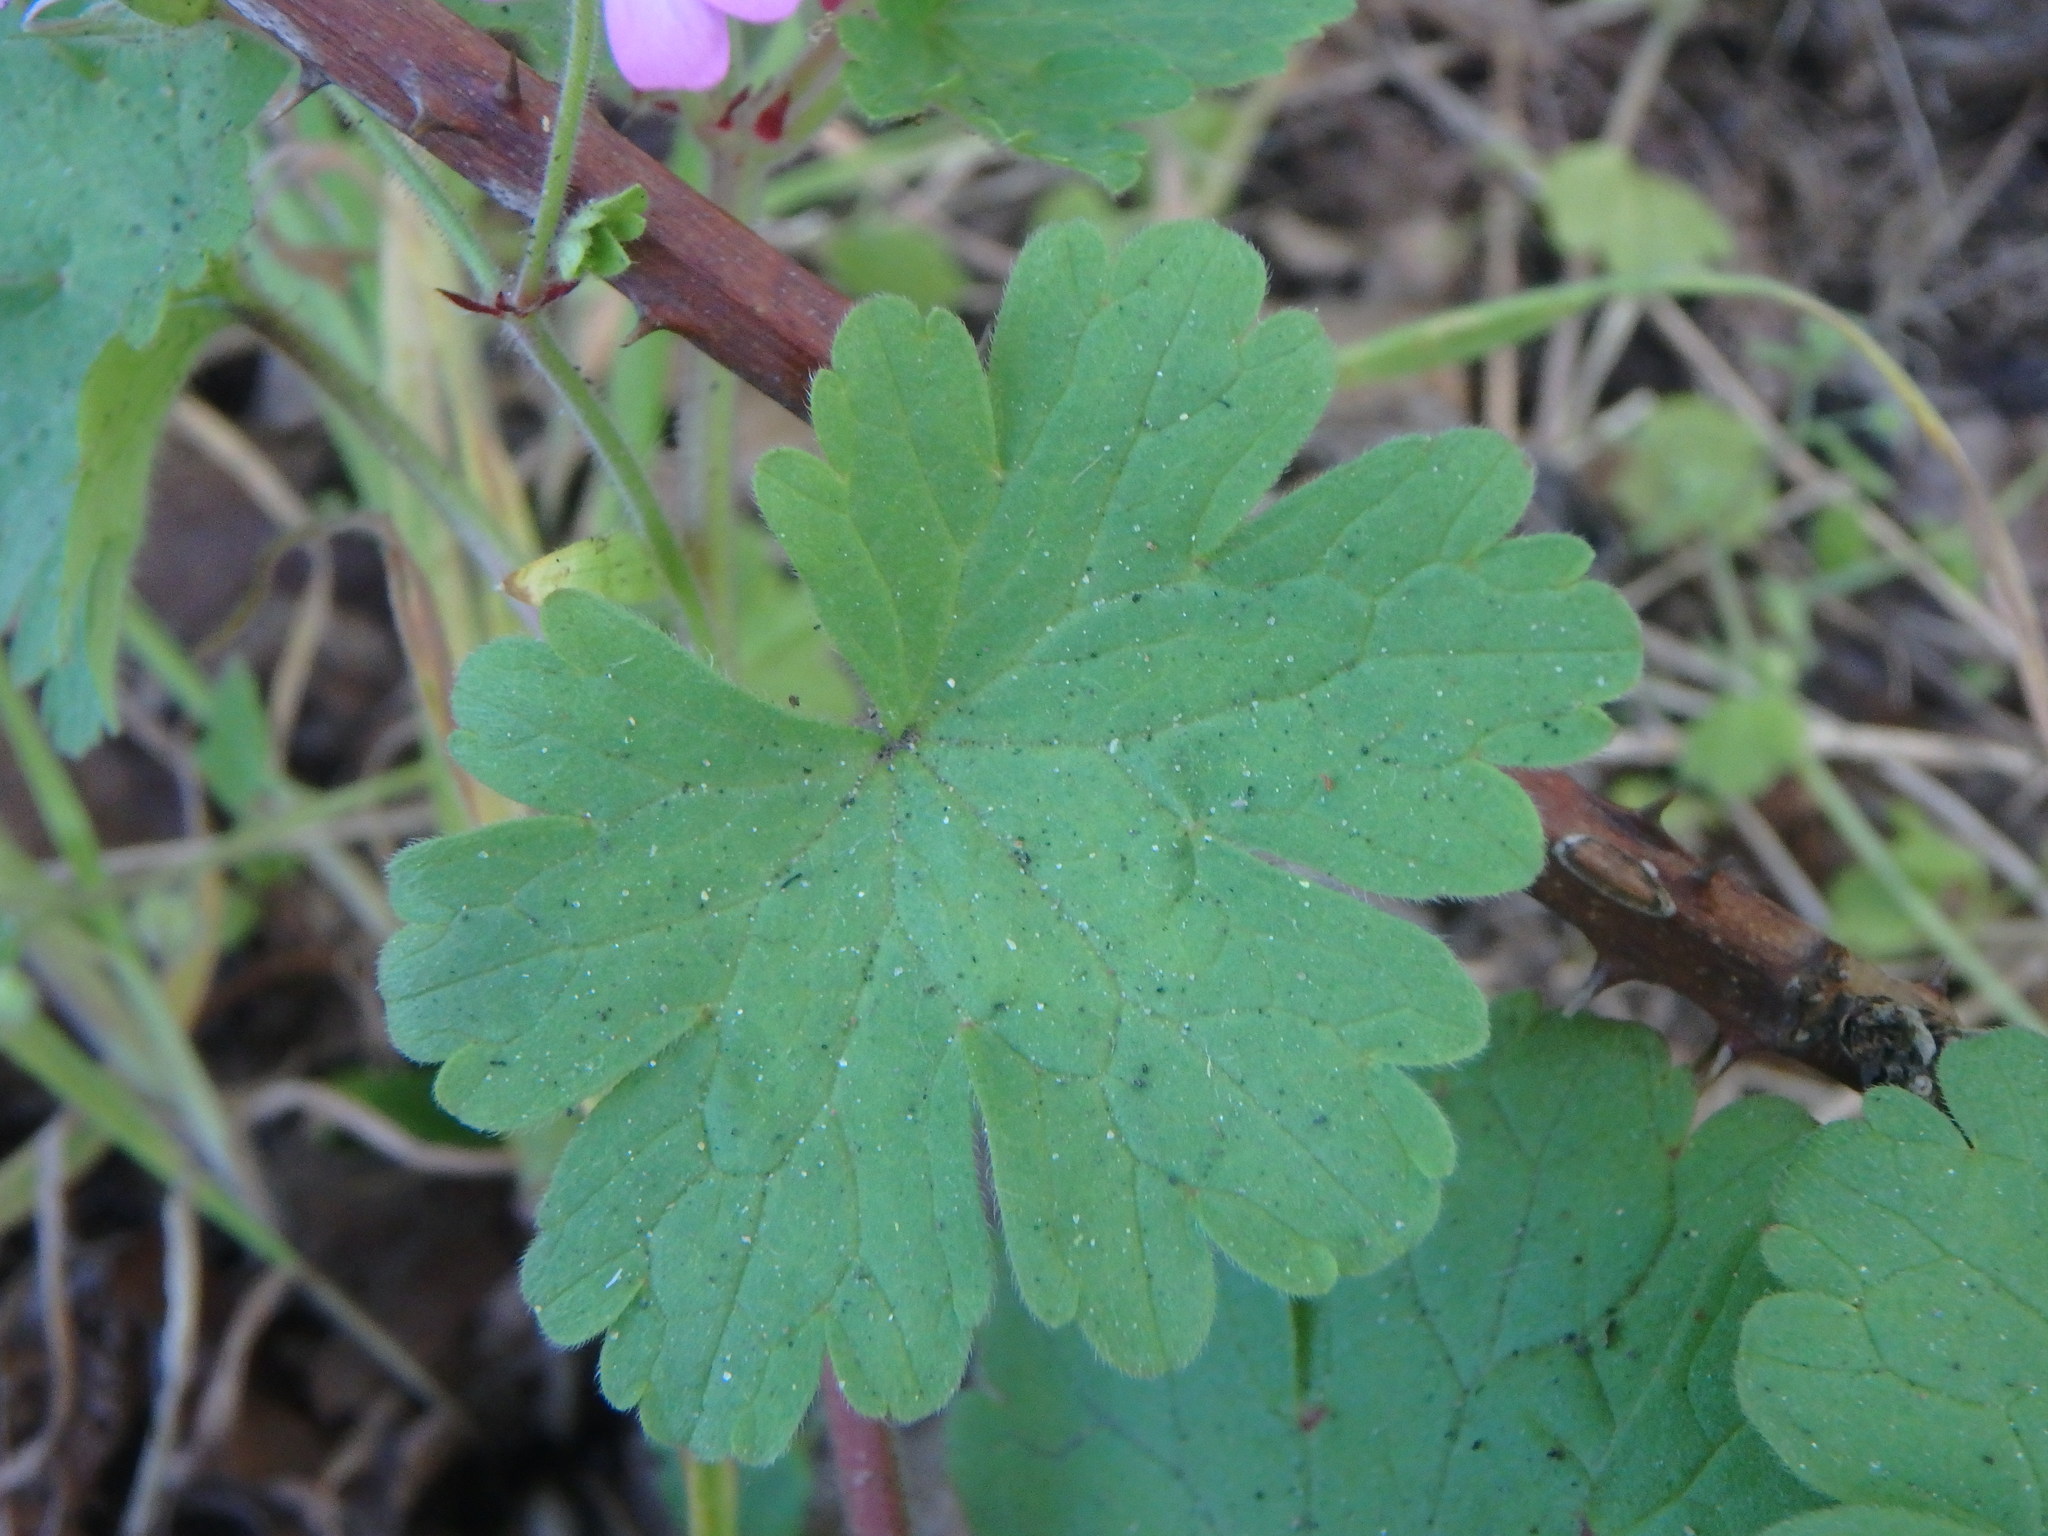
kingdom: Plantae
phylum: Tracheophyta
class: Magnoliopsida
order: Geraniales
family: Geraniaceae
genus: Geranium
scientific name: Geranium rotundifolium
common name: Round-leaved crane's-bill
